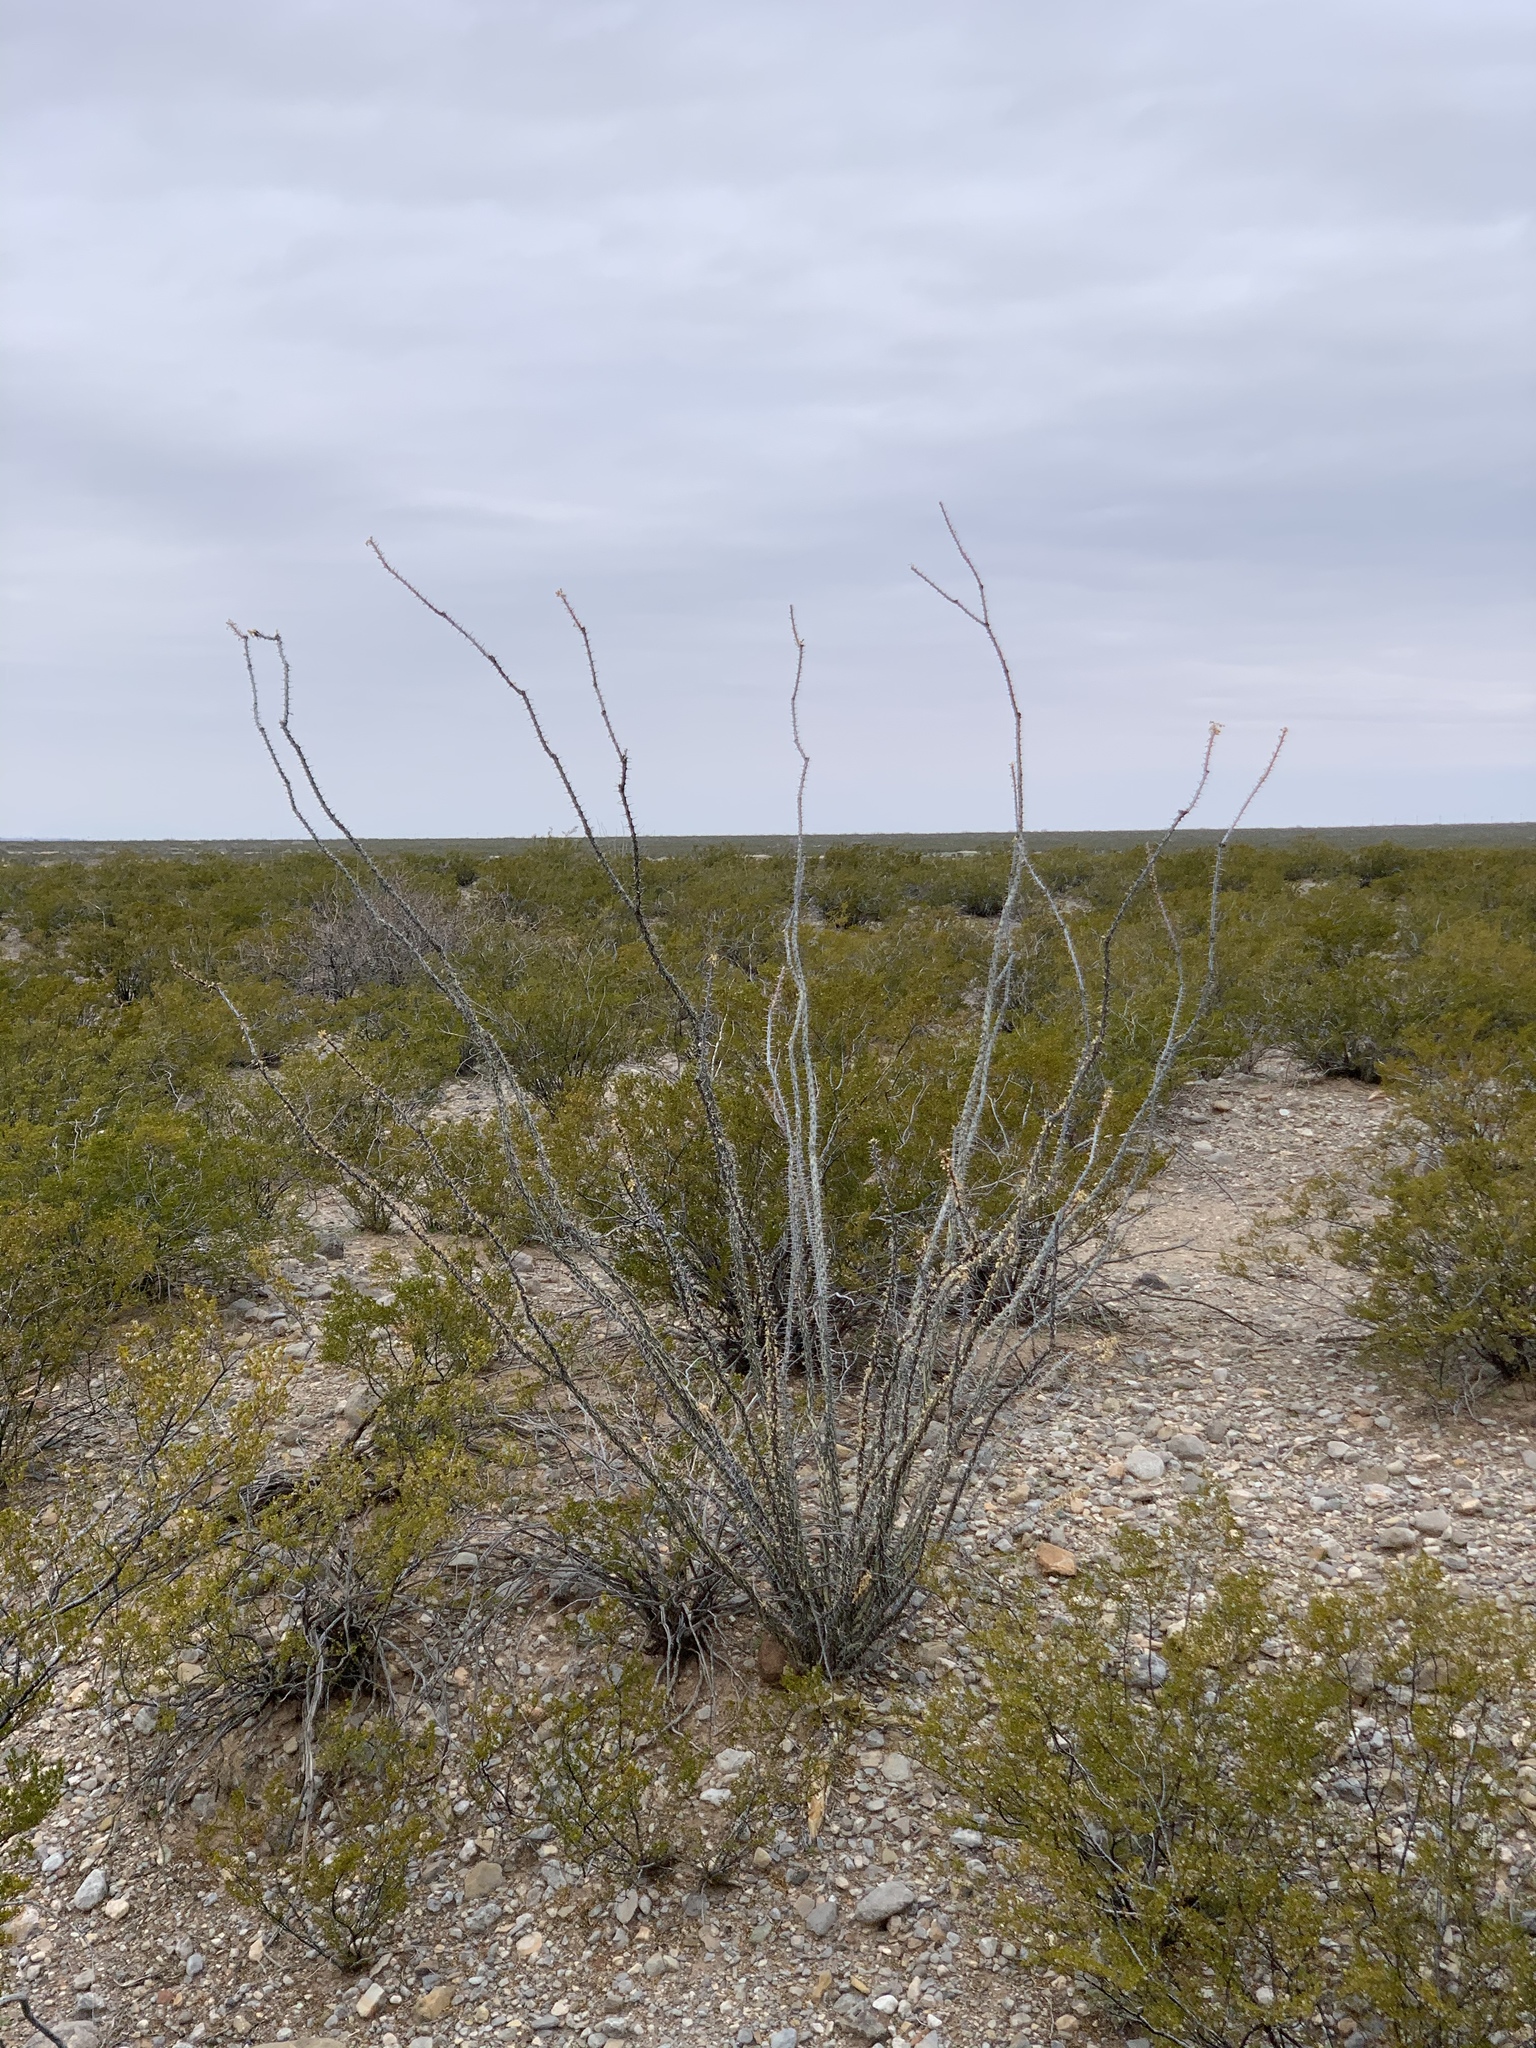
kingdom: Plantae
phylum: Tracheophyta
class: Magnoliopsida
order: Ericales
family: Fouquieriaceae
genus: Fouquieria
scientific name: Fouquieria splendens
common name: Vine-cactus
